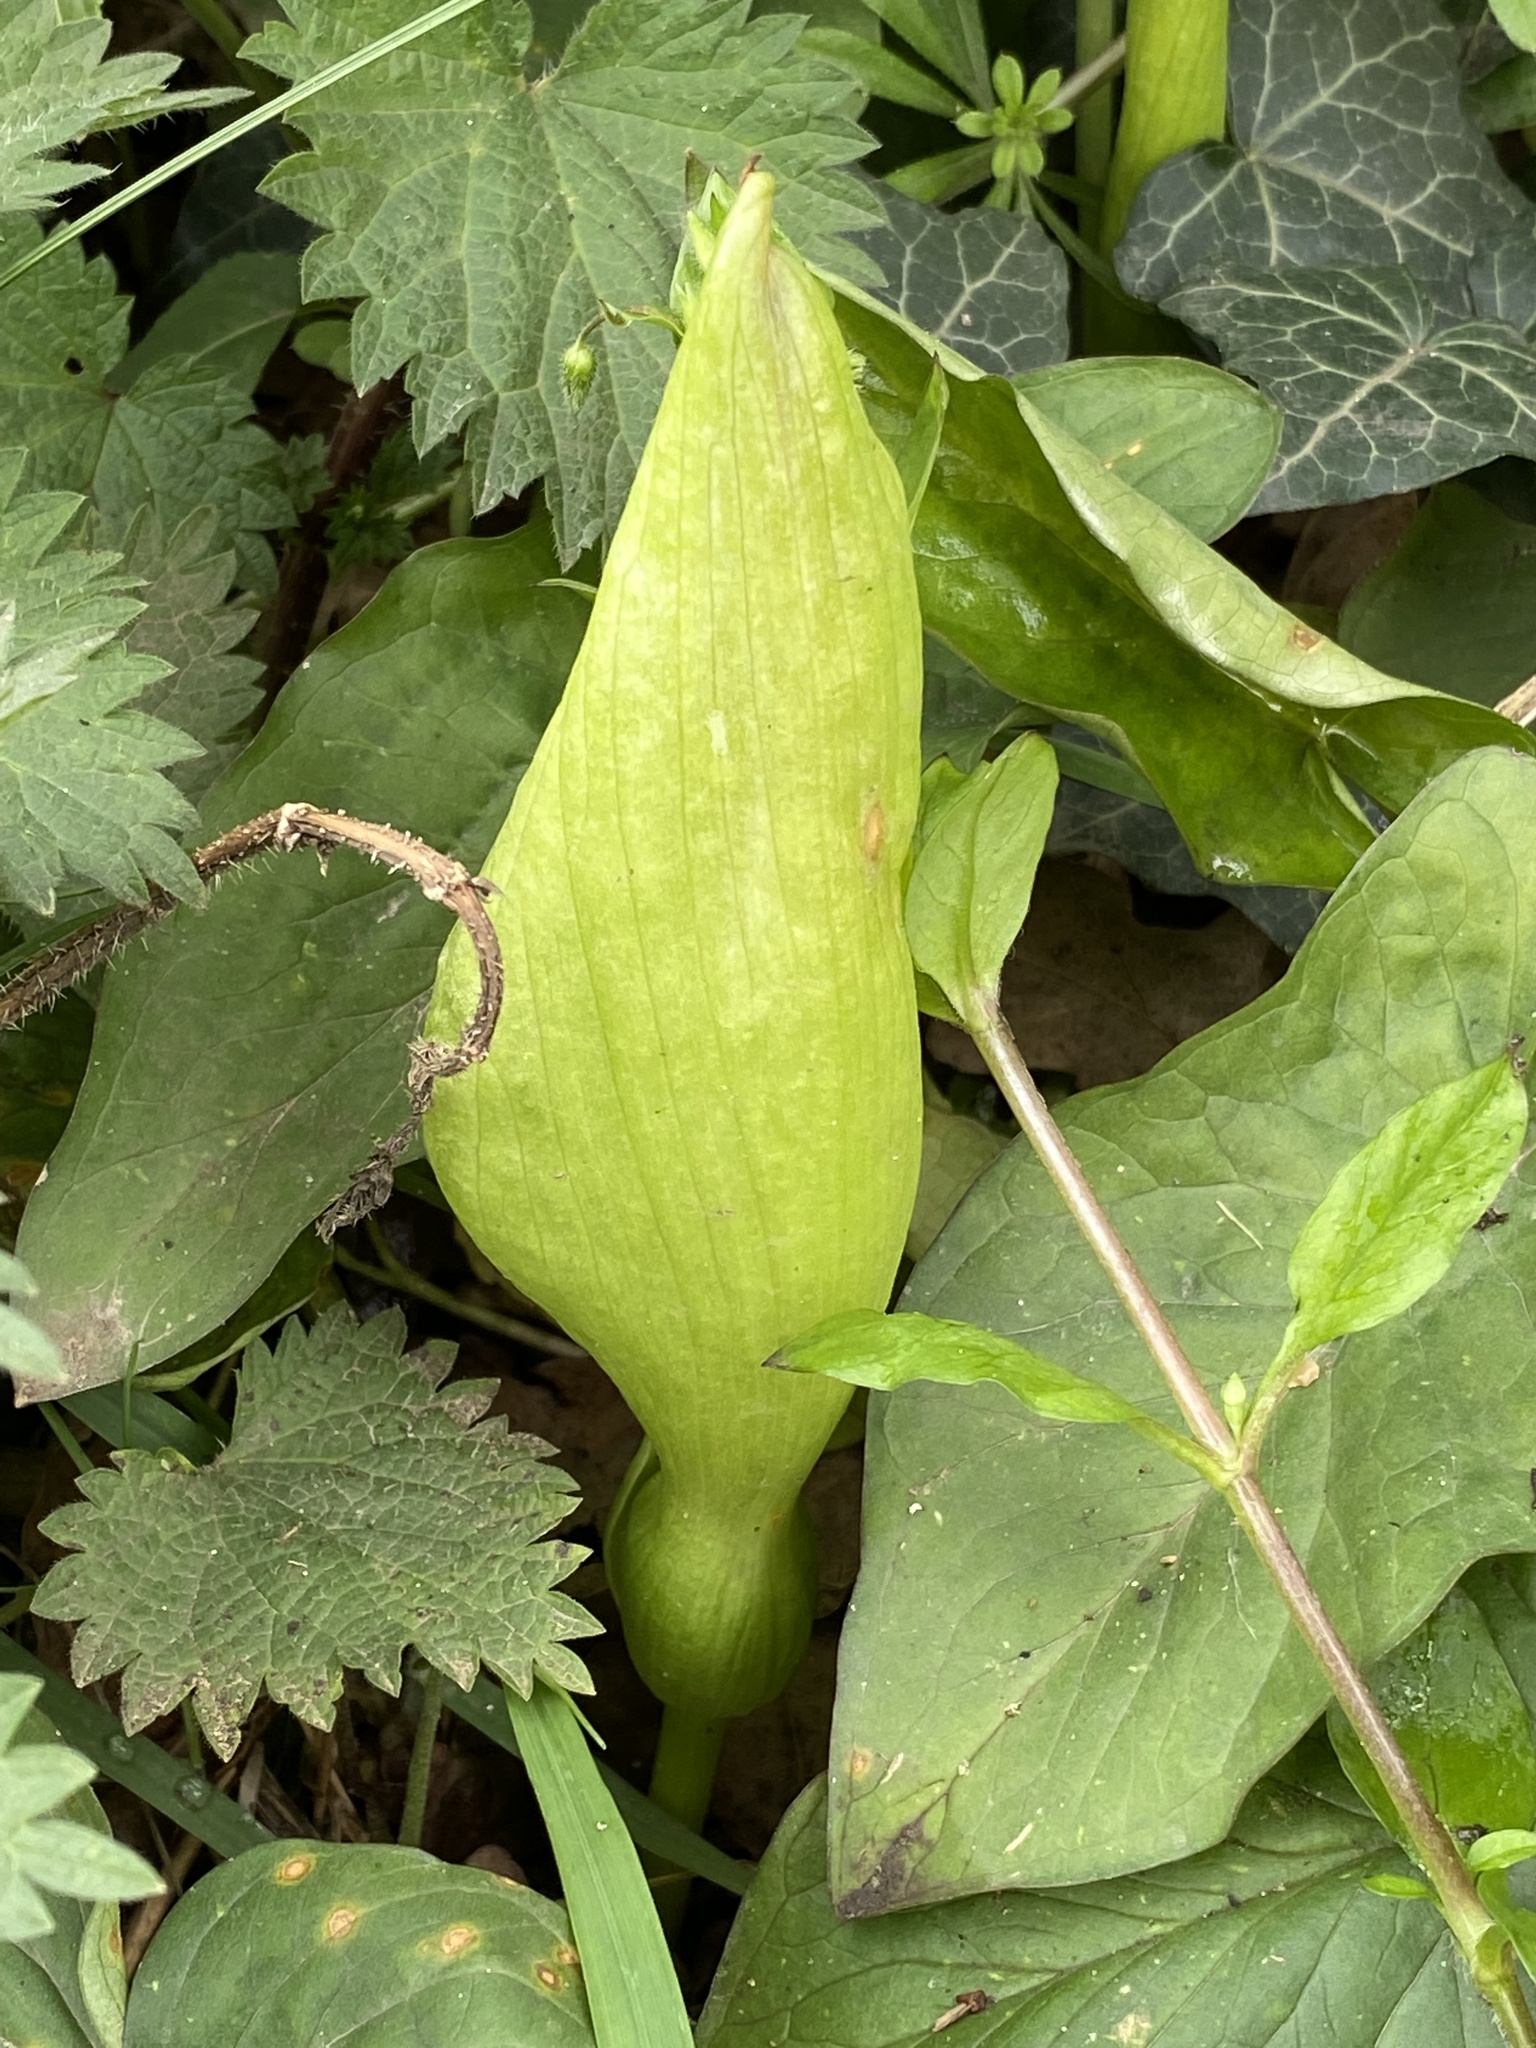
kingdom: Plantae
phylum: Tracheophyta
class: Liliopsida
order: Alismatales
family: Araceae
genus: Arum
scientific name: Arum maculatum
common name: Lords-and-ladies
